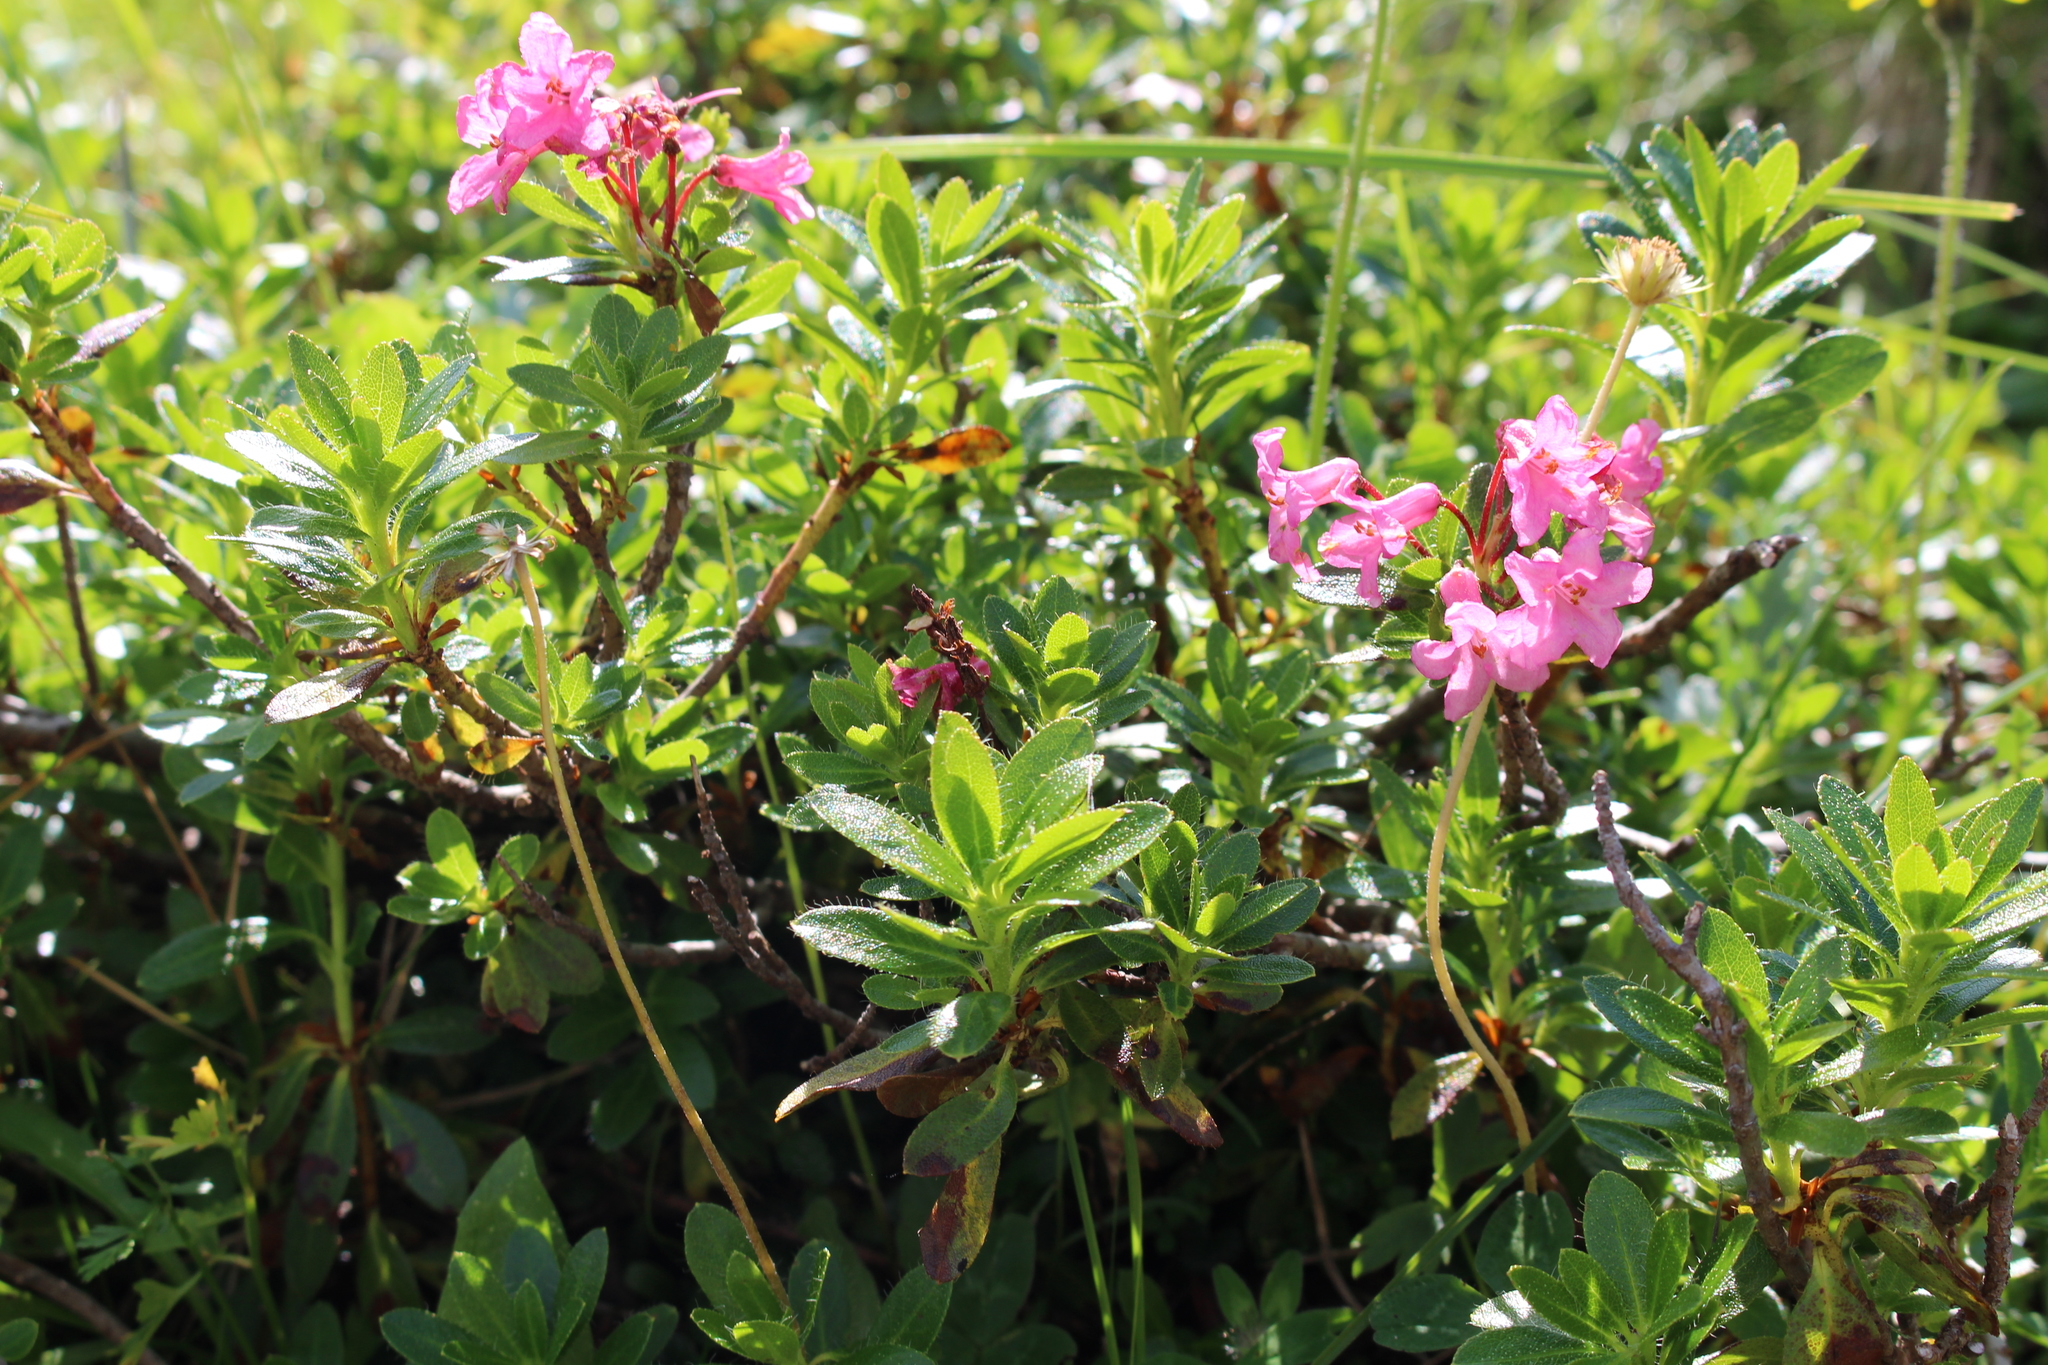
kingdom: Plantae
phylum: Tracheophyta
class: Magnoliopsida
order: Ericales
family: Ericaceae
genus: Rhododendron
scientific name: Rhododendron hirsutum
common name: Hairy alpenrose
